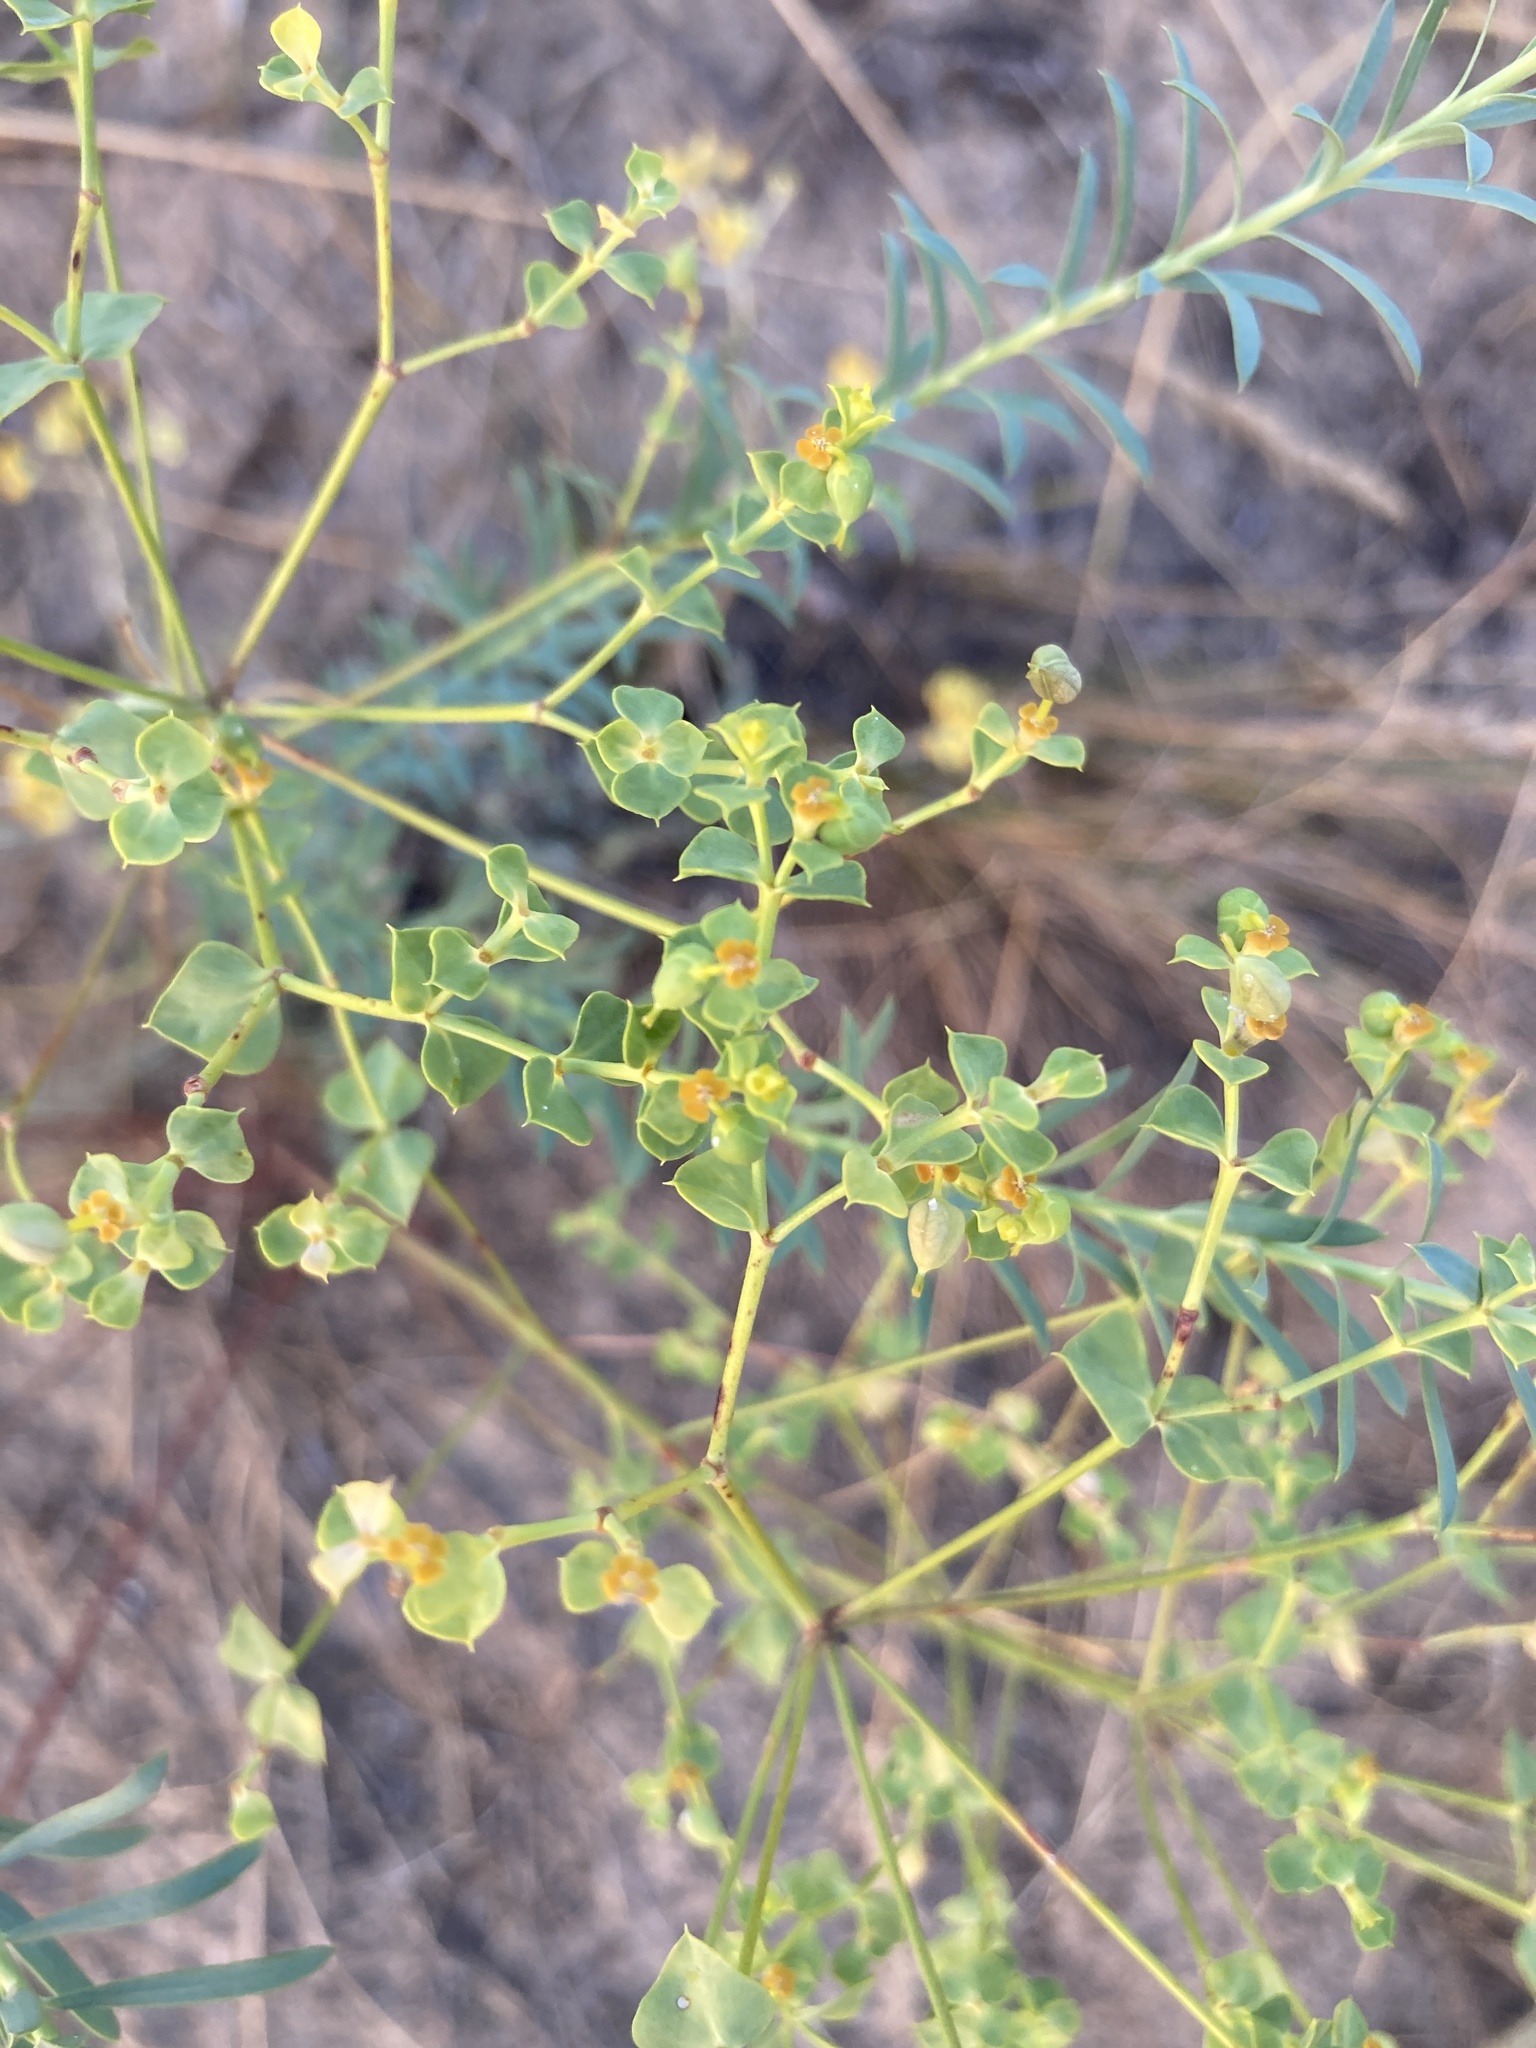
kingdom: Plantae
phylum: Tracheophyta
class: Magnoliopsida
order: Malpighiales
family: Euphorbiaceae
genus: Euphorbia
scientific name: Euphorbia virgata
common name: Leafy spurge
